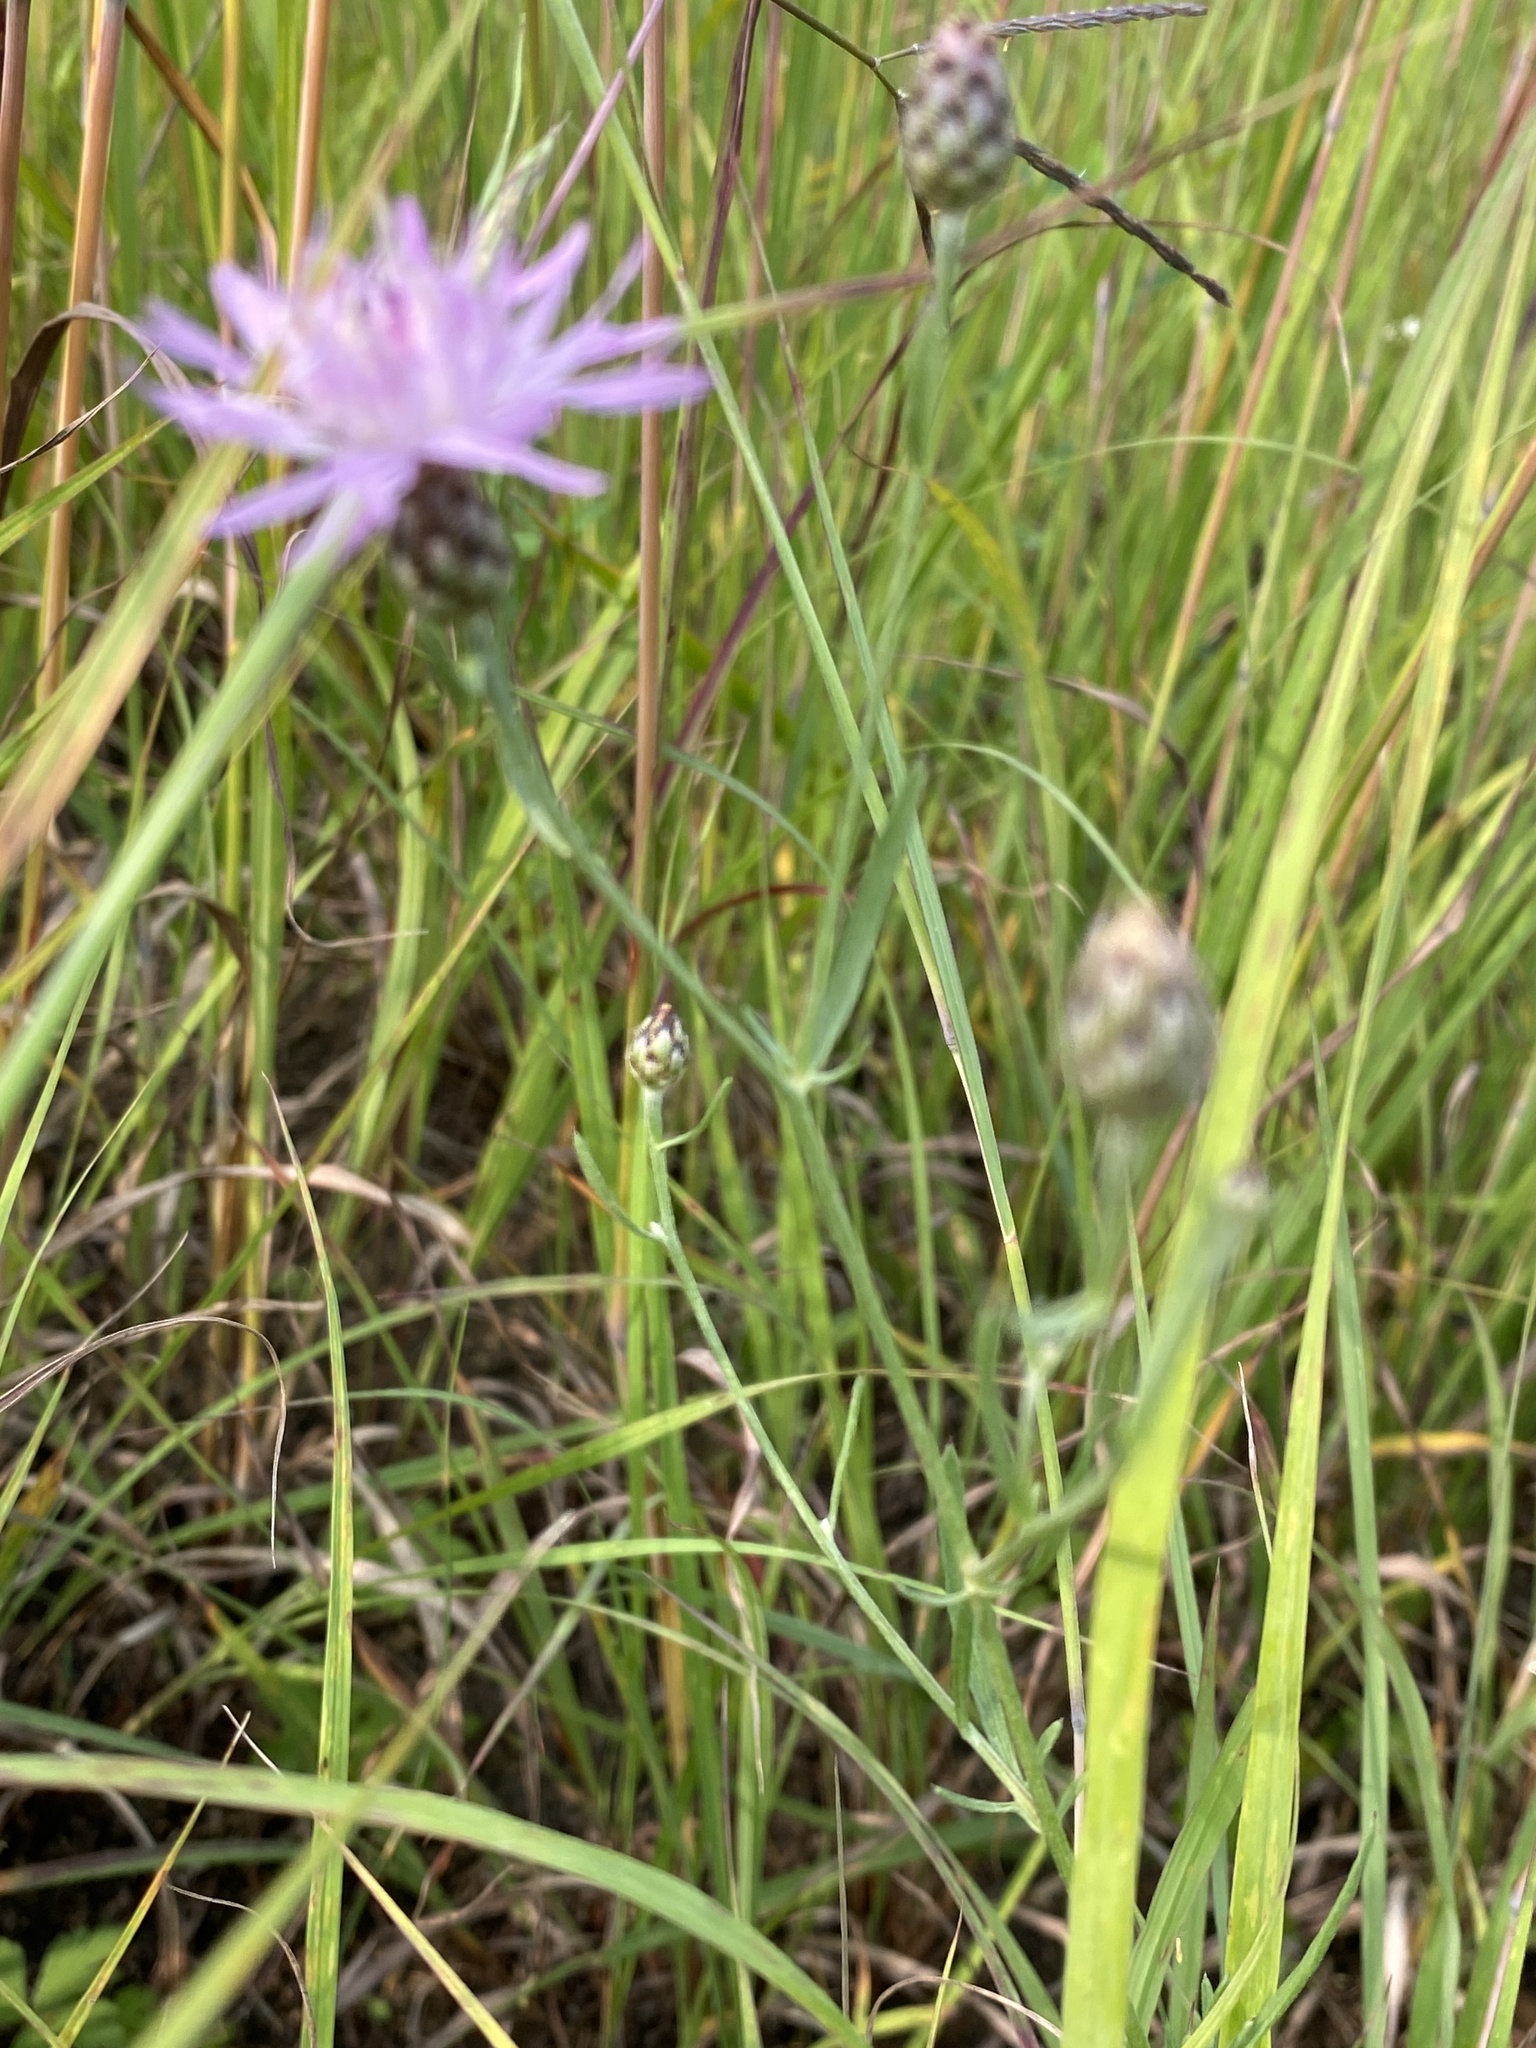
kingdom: Plantae
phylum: Tracheophyta
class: Magnoliopsida
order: Asterales
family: Asteraceae
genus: Centaurea
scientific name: Centaurea stoebe
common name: Spotted knapweed
